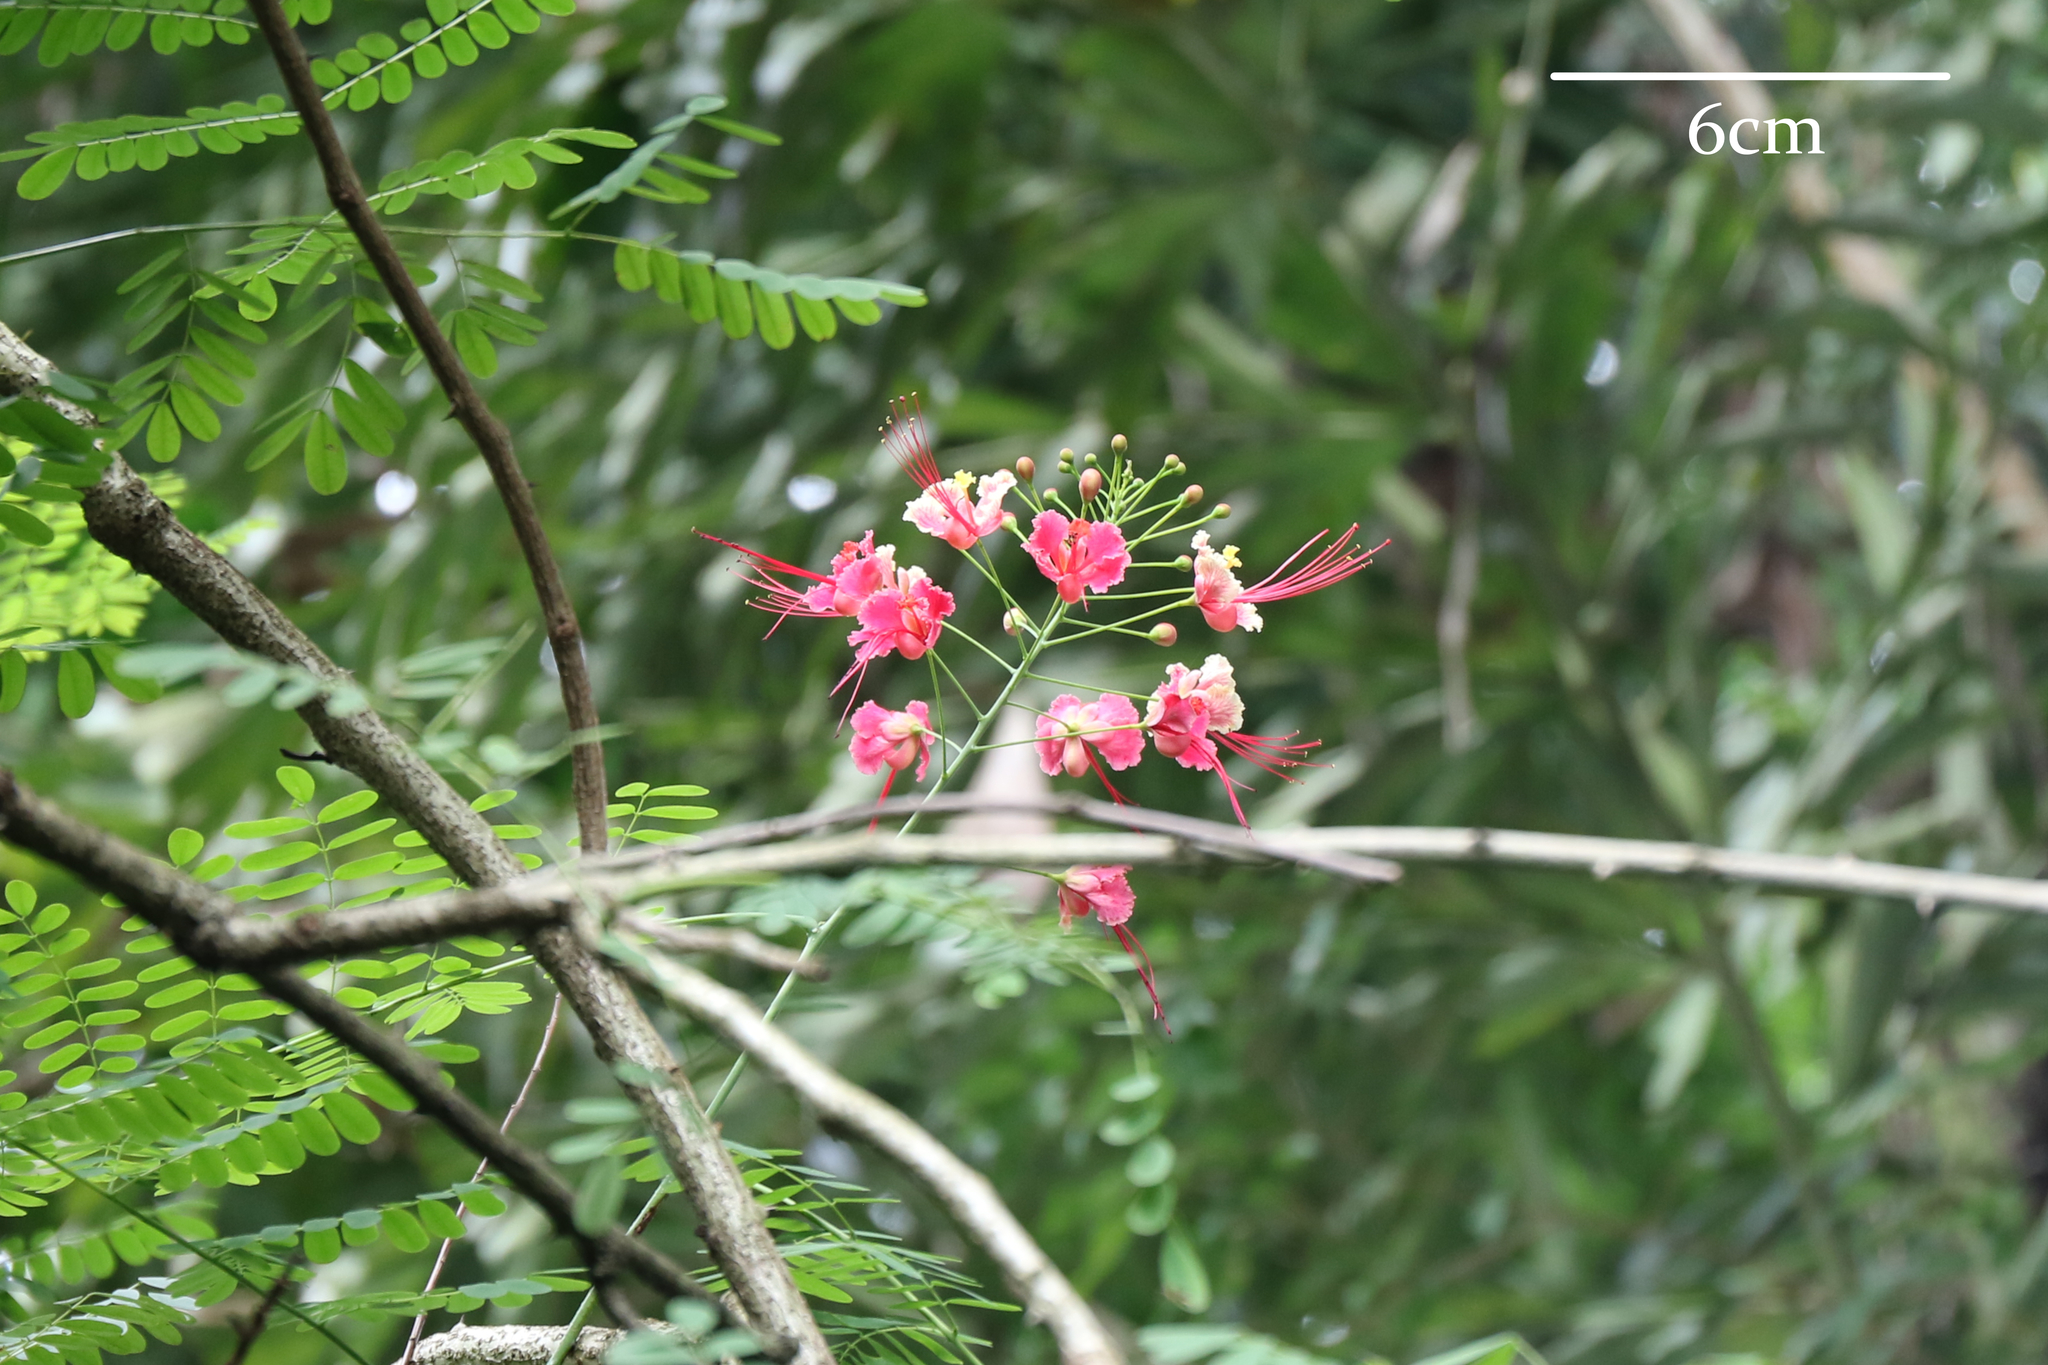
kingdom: Plantae
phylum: Tracheophyta
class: Magnoliopsida
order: Fabales
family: Fabaceae
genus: Caesalpinia
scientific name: Caesalpinia pulcherrima
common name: Pride-of-barbados
